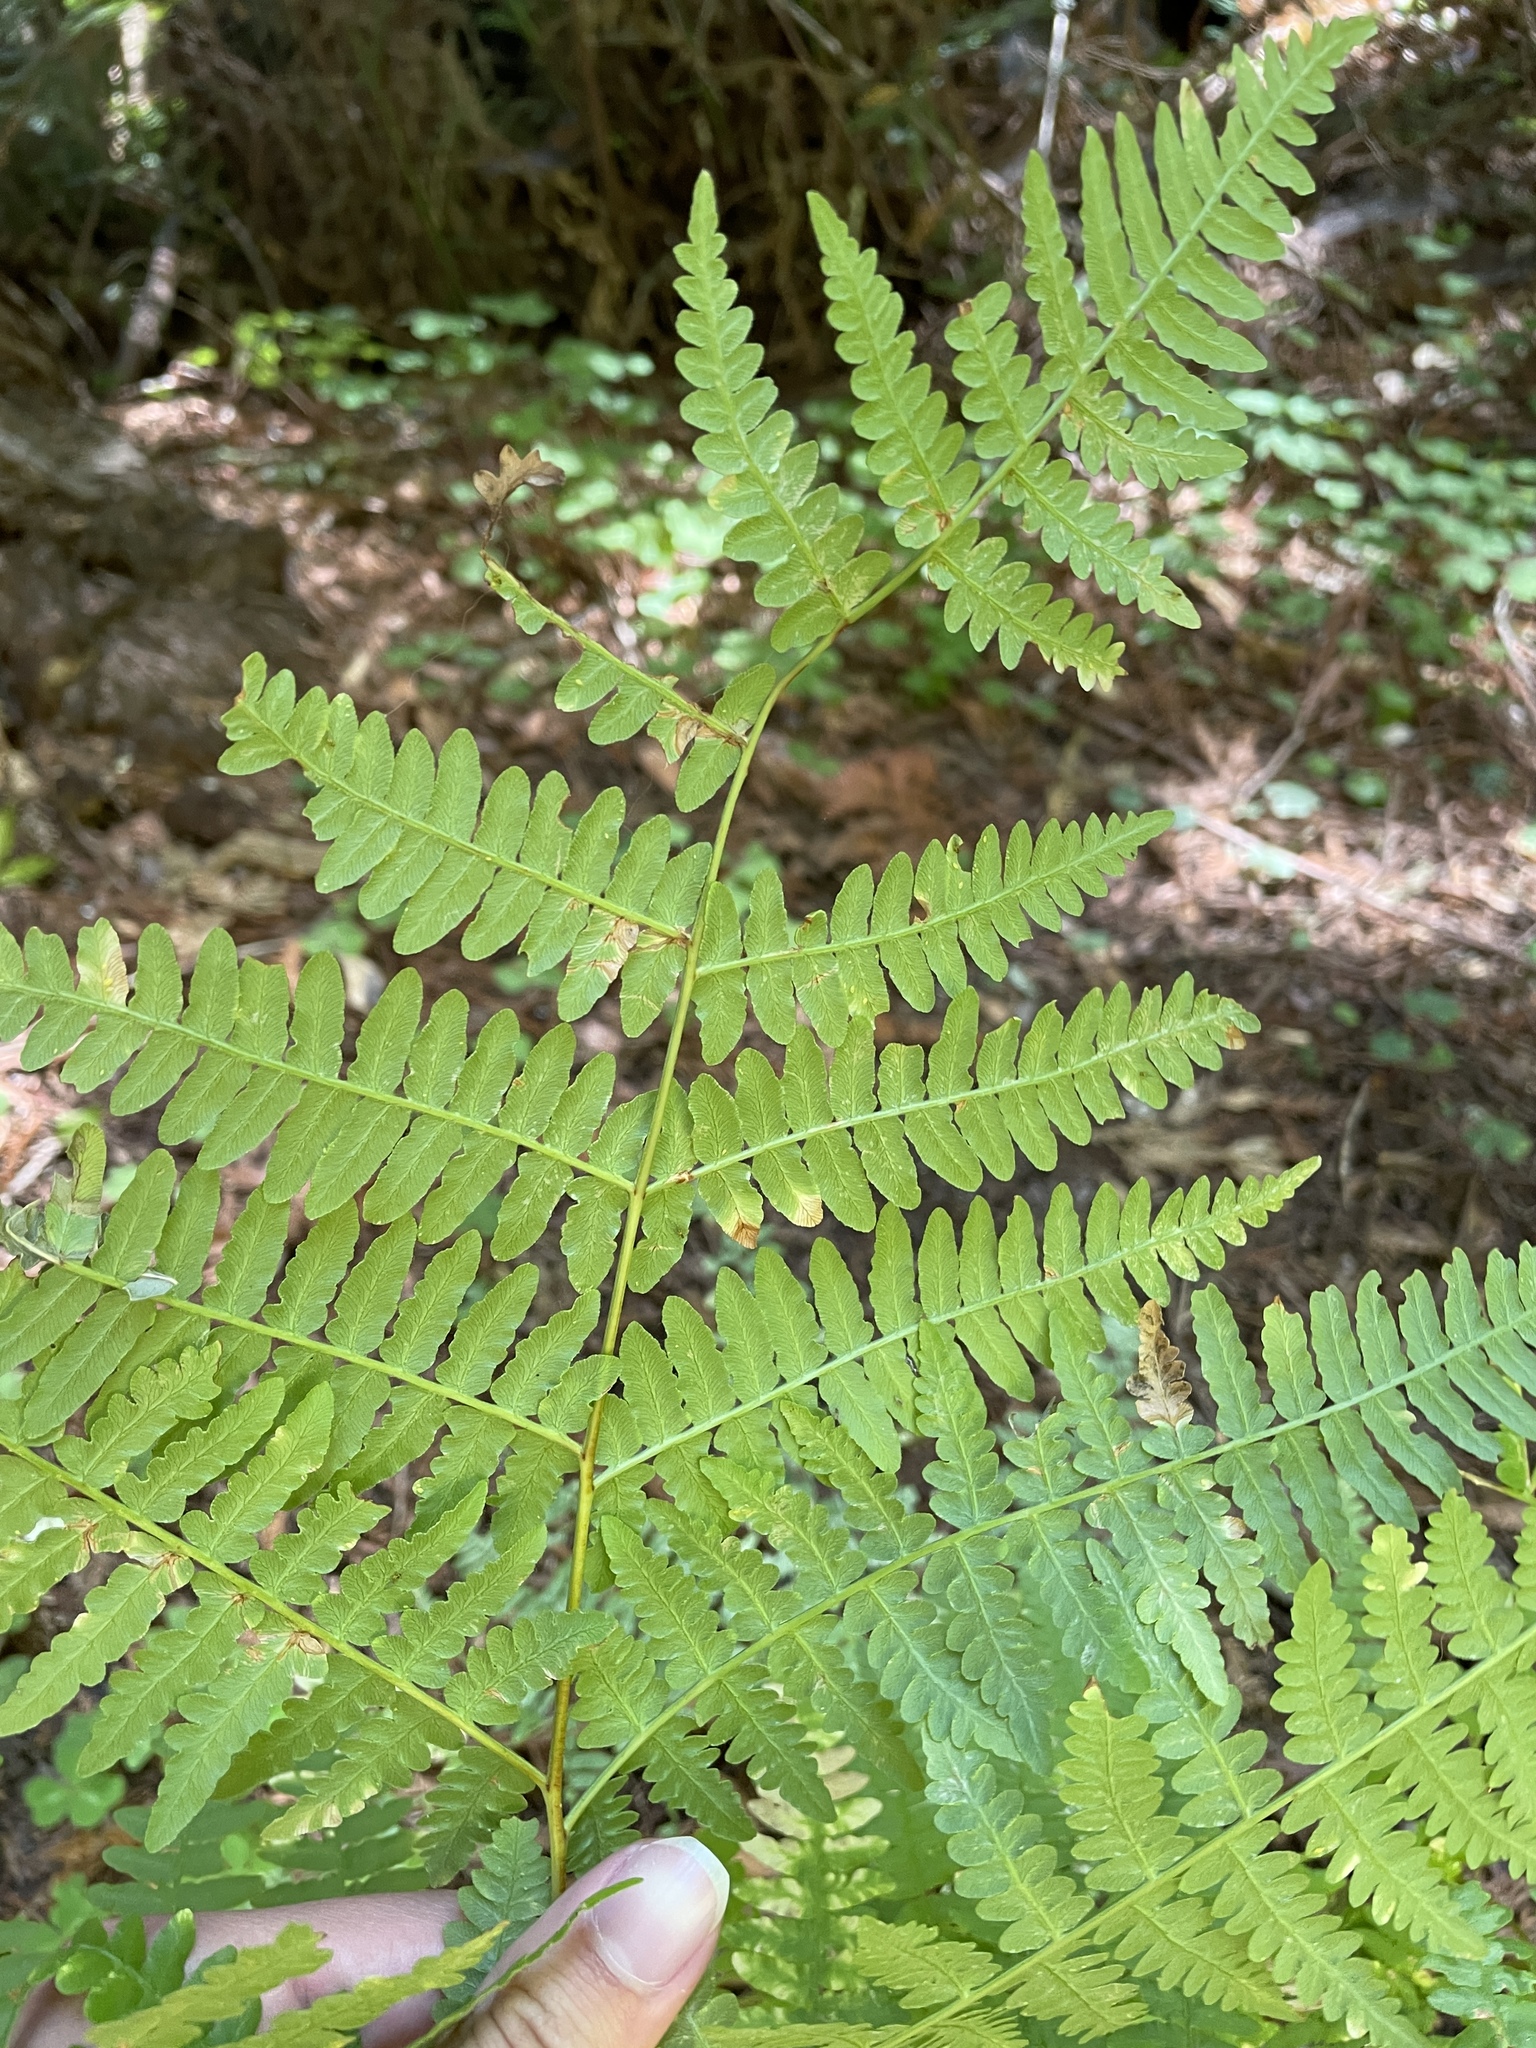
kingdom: Plantae
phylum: Tracheophyta
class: Polypodiopsida
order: Polypodiales
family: Dennstaedtiaceae
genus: Pteridium
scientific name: Pteridium aquilinum
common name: Bracken
